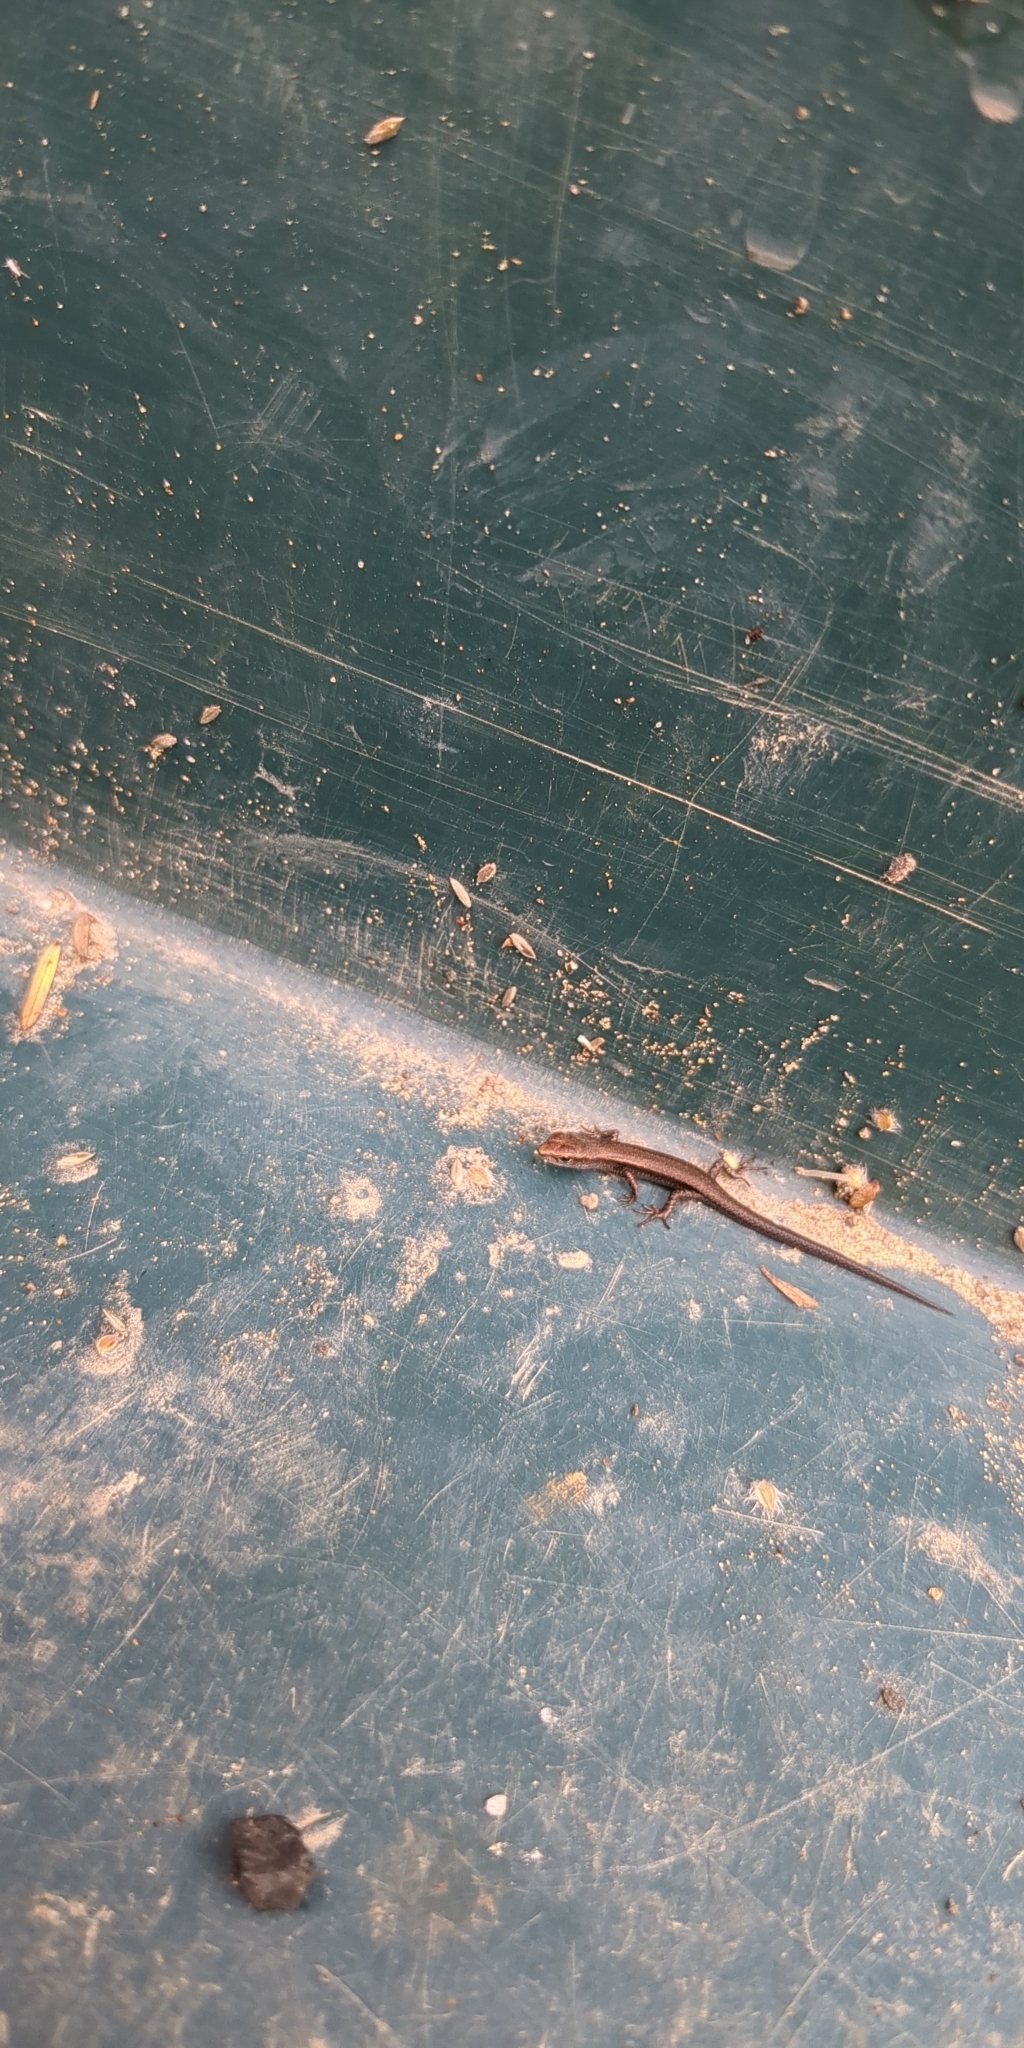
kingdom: Animalia
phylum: Chordata
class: Squamata
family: Scincidae
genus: Lampropholis
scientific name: Lampropholis delicata
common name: Plague skink
